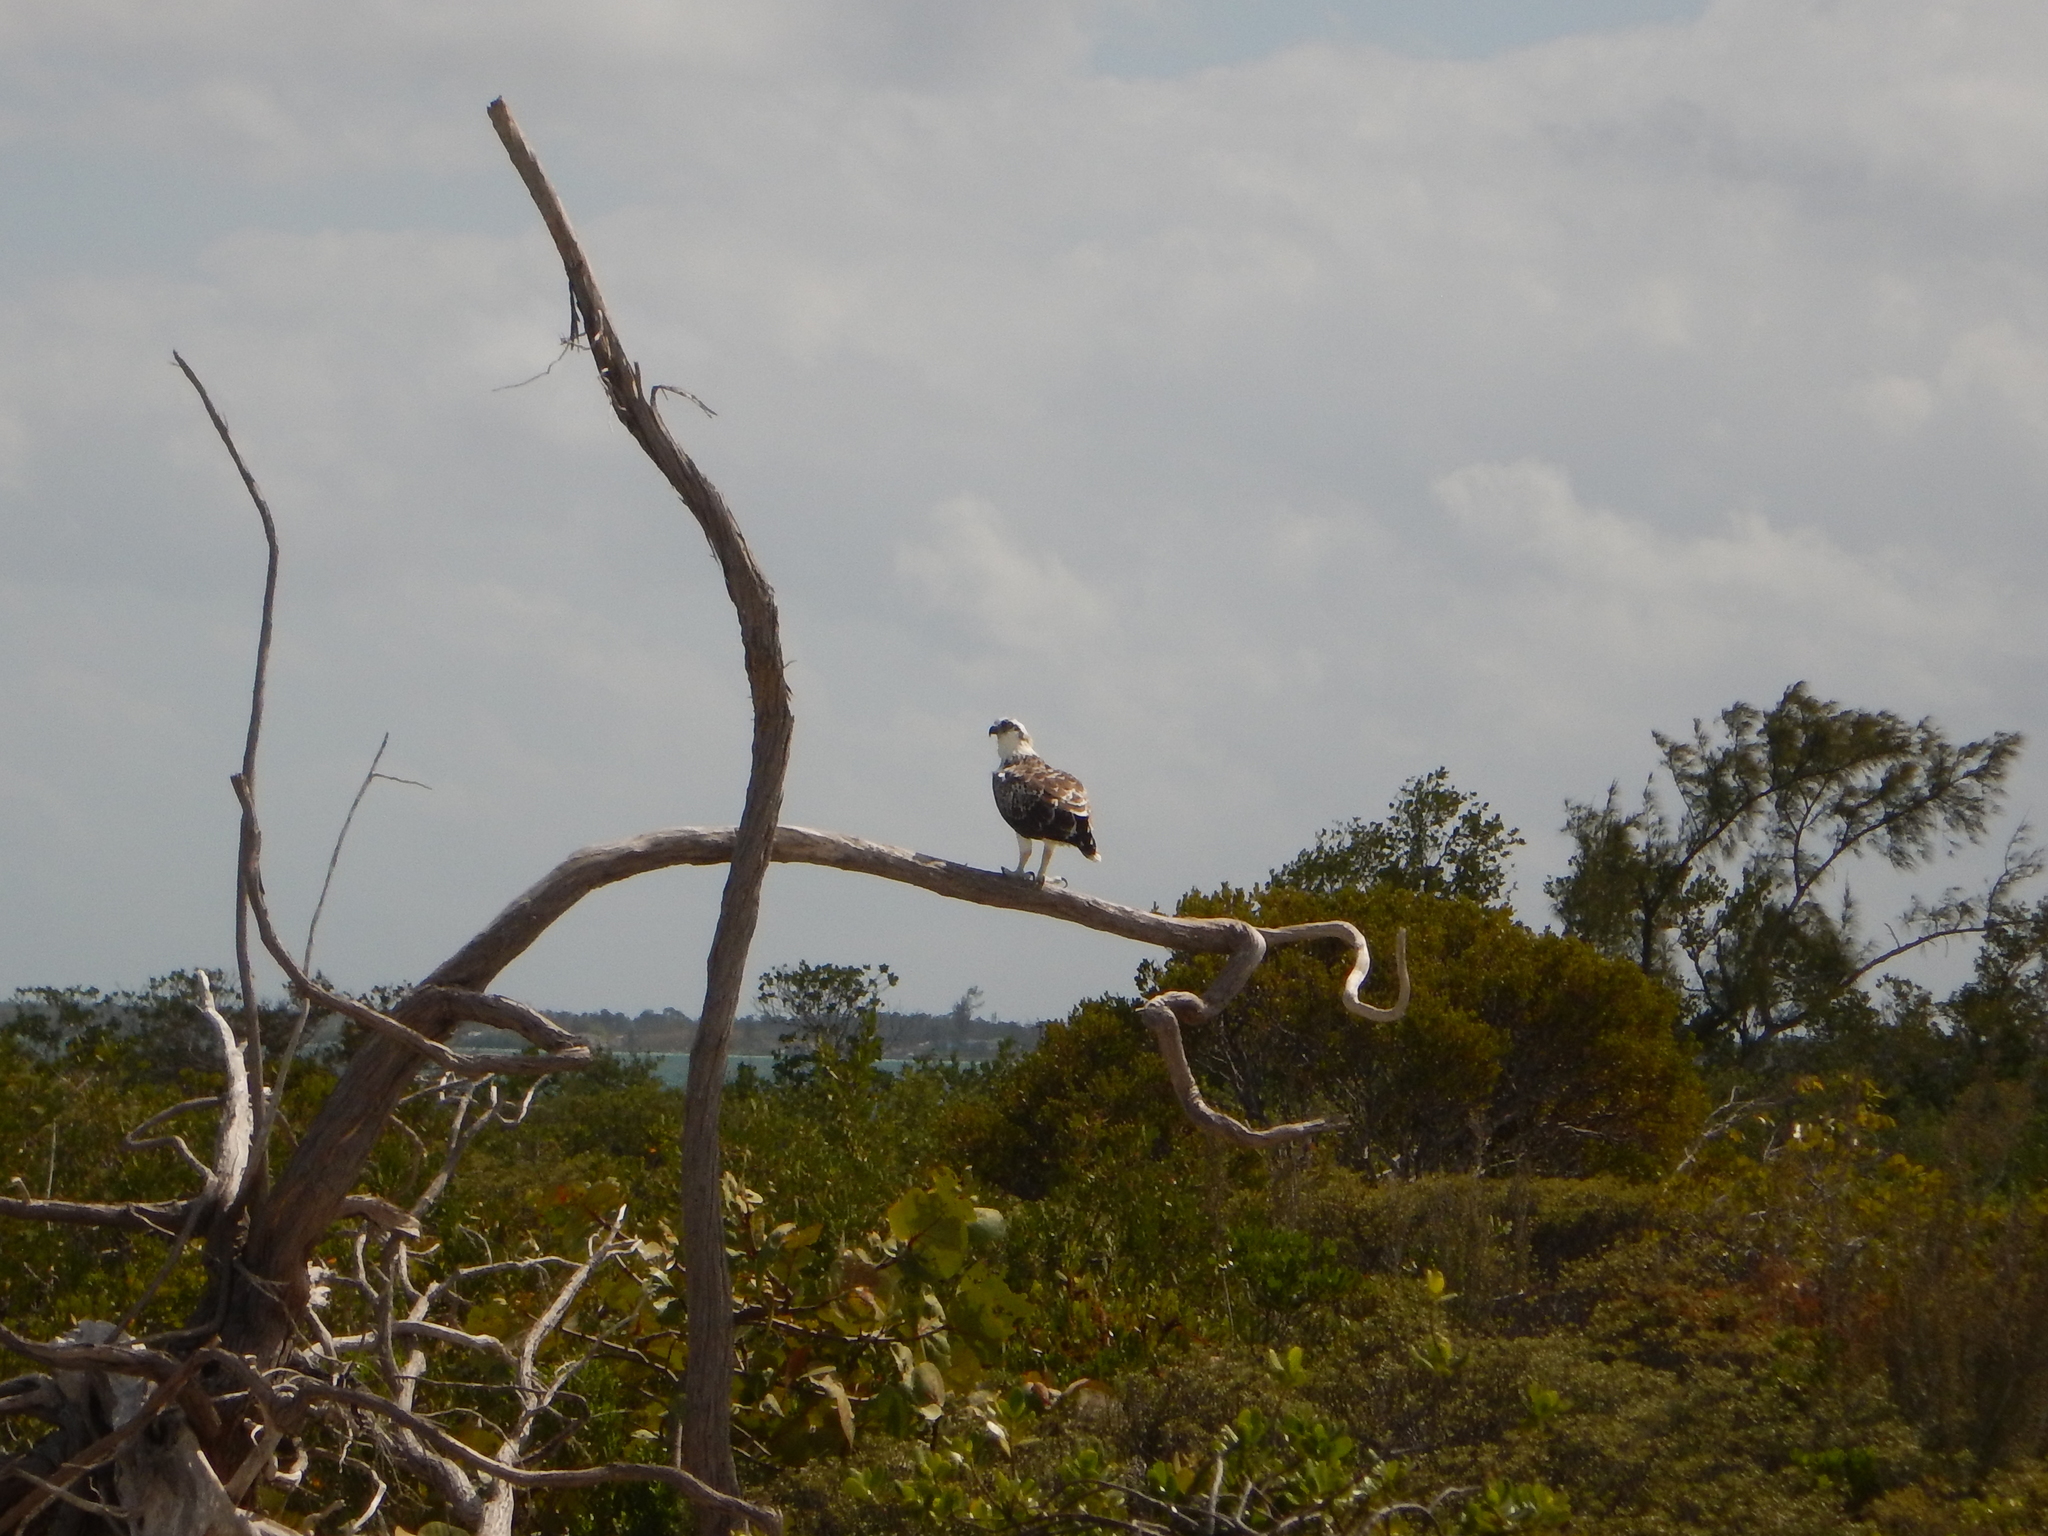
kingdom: Animalia
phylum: Chordata
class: Aves
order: Accipitriformes
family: Pandionidae
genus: Pandion
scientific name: Pandion haliaetus
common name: Osprey
